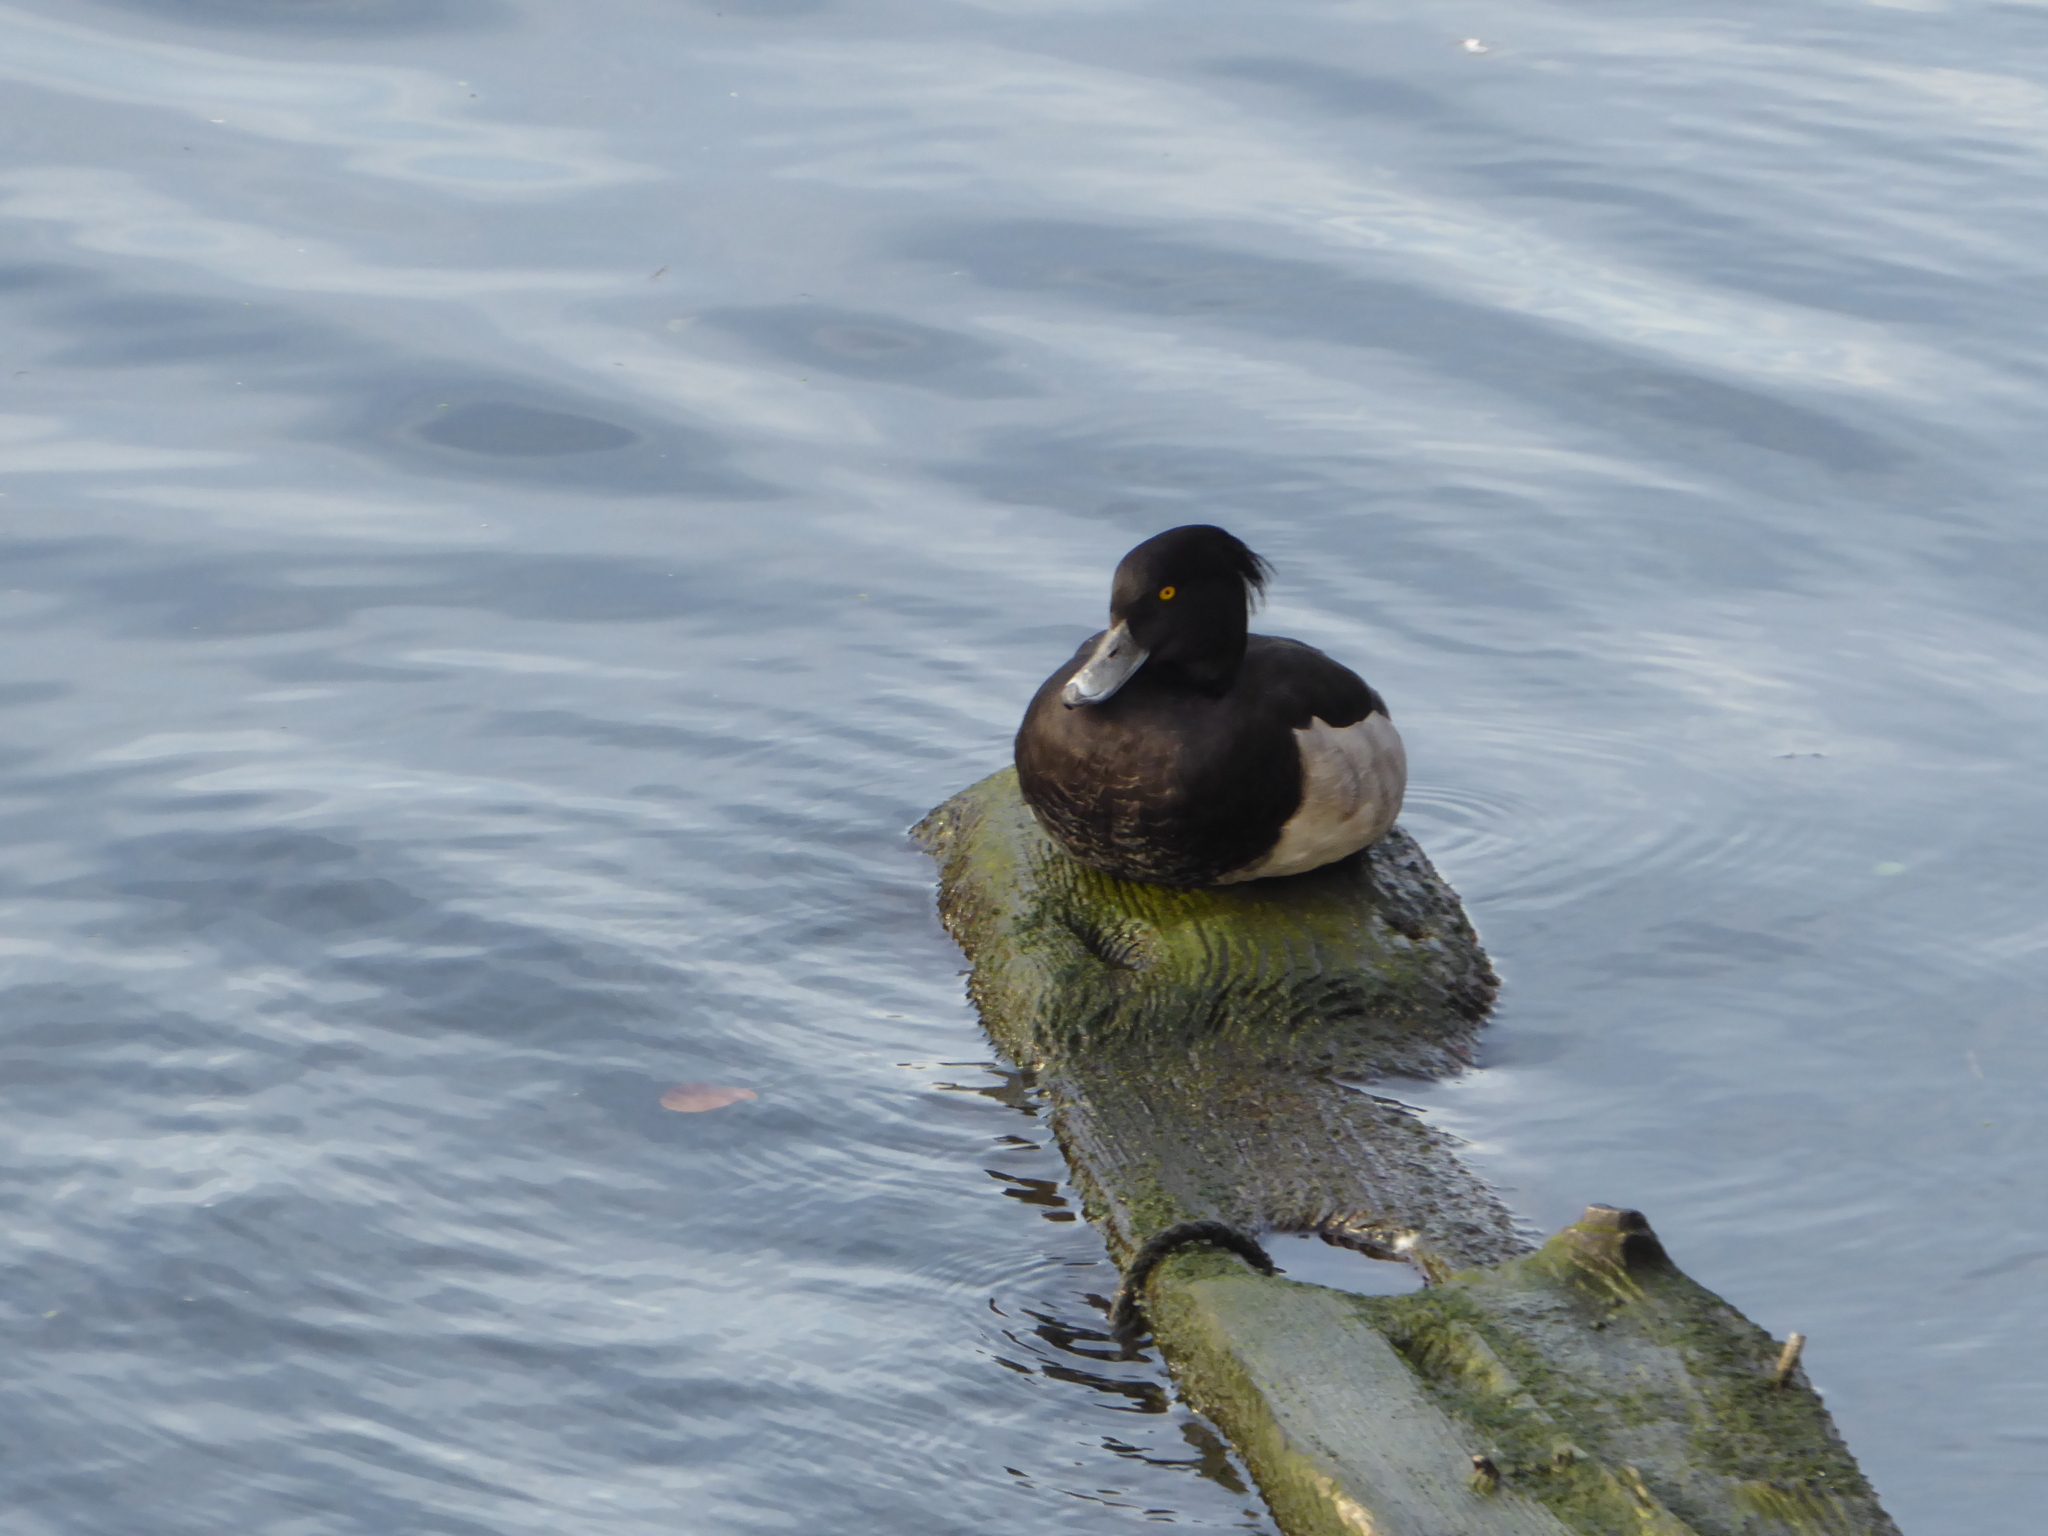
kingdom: Animalia
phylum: Chordata
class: Aves
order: Anseriformes
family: Anatidae
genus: Aythya
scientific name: Aythya fuligula
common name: Tufted duck
